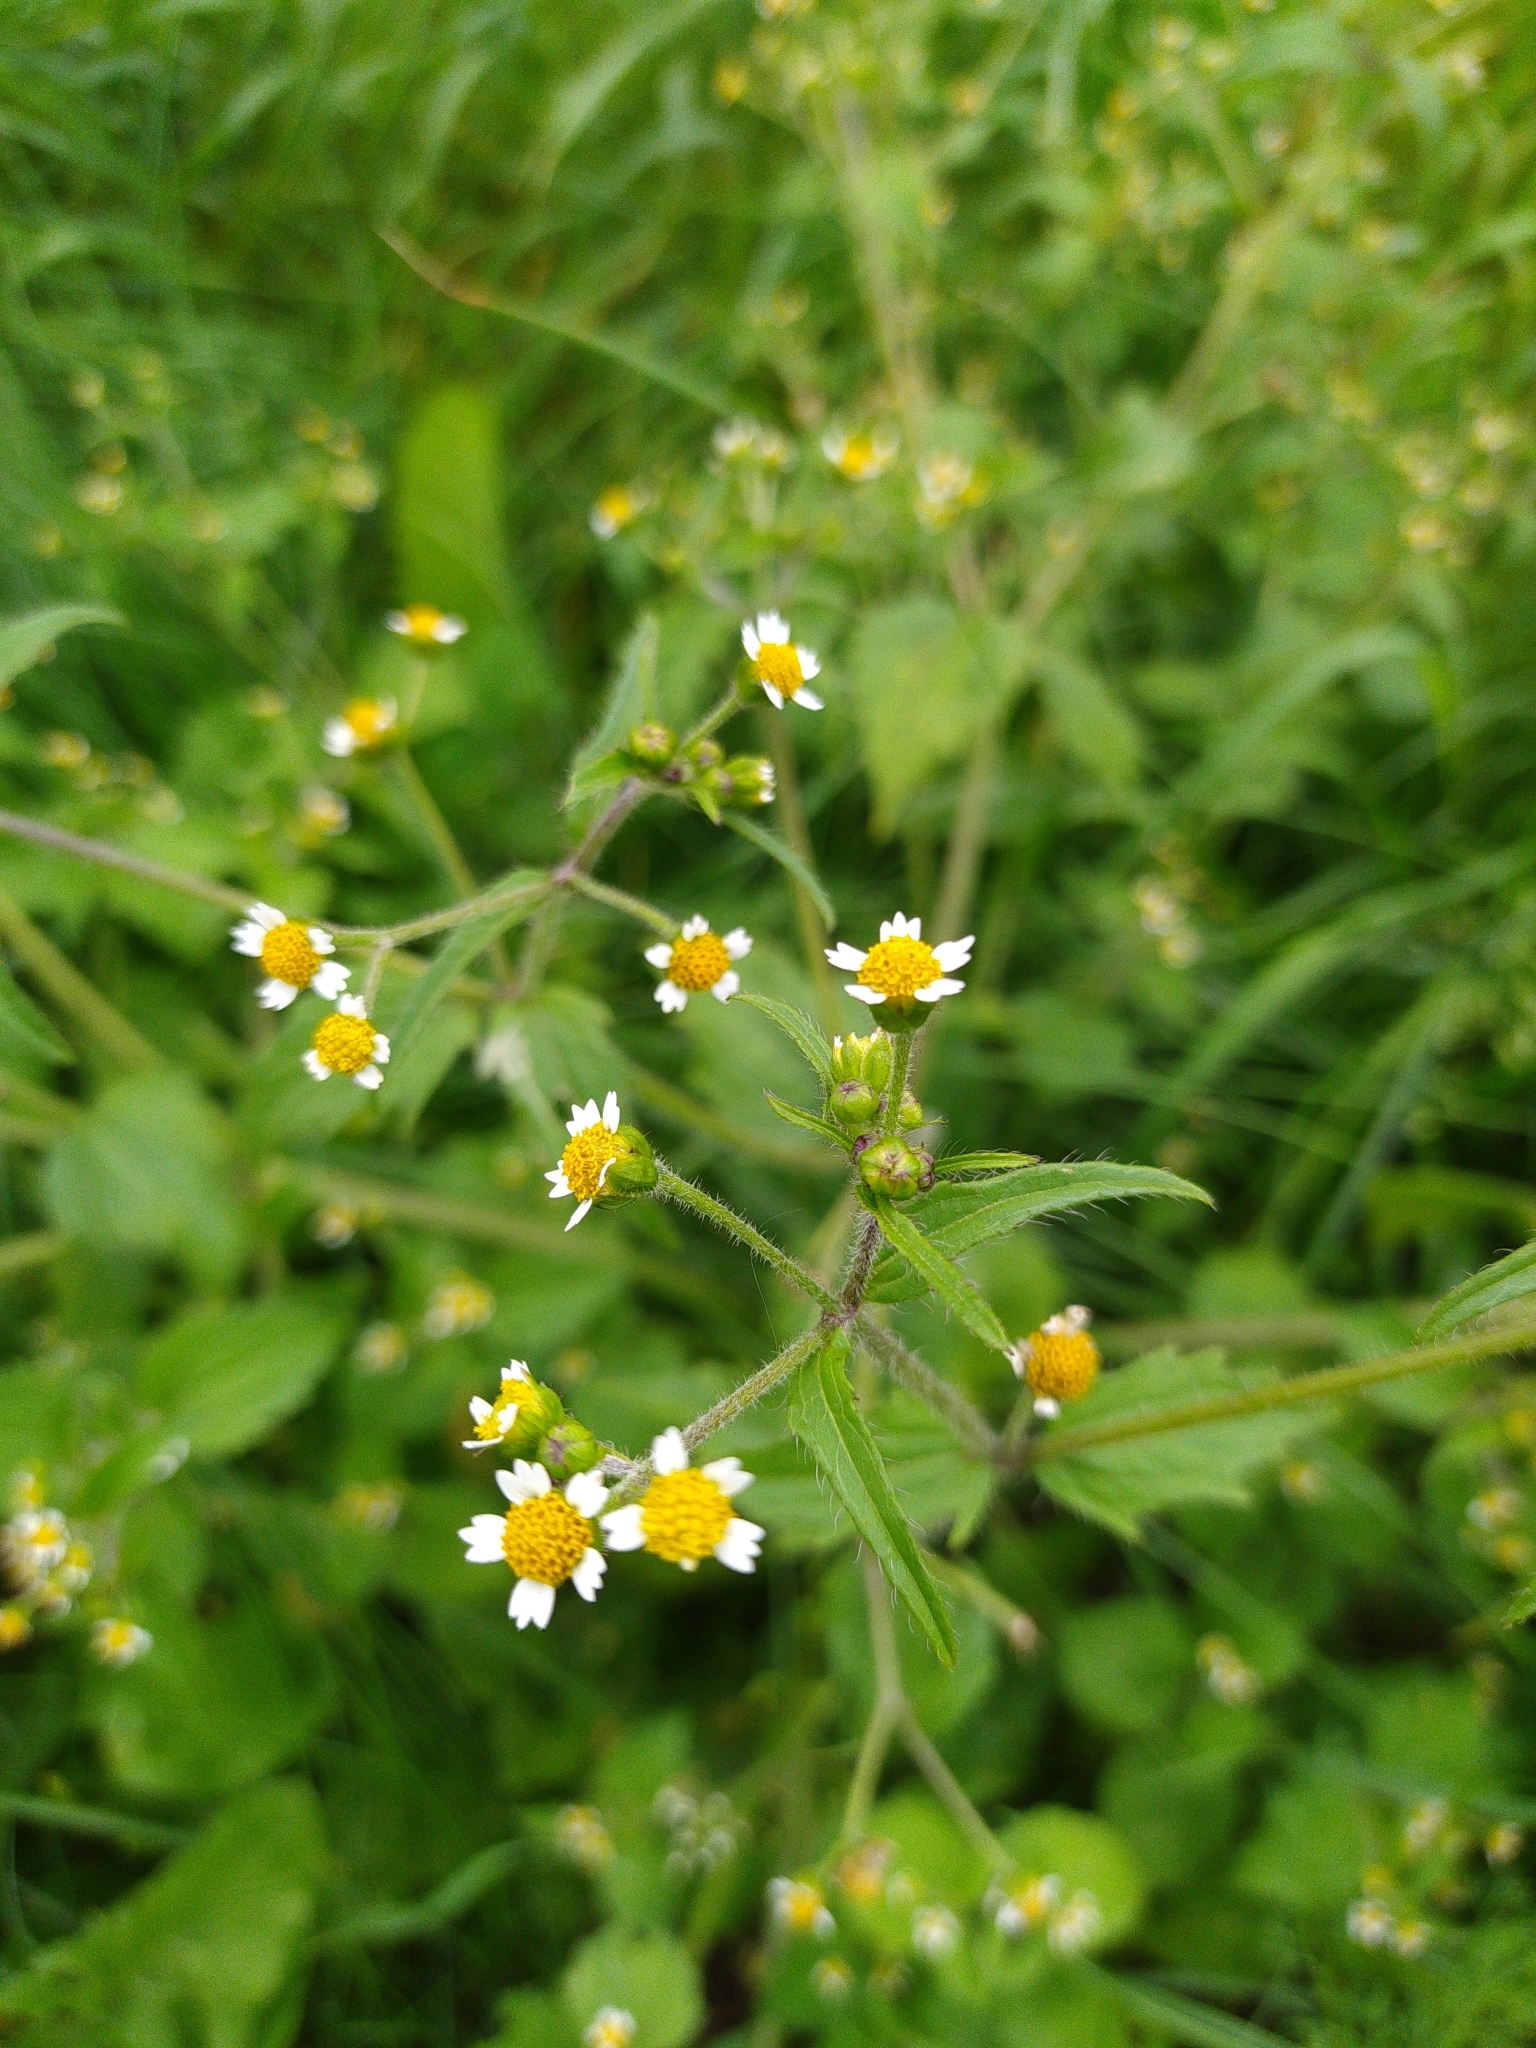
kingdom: Plantae
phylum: Tracheophyta
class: Magnoliopsida
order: Asterales
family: Asteraceae
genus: Galinsoga
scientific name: Galinsoga quadriradiata
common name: Shaggy soldier
